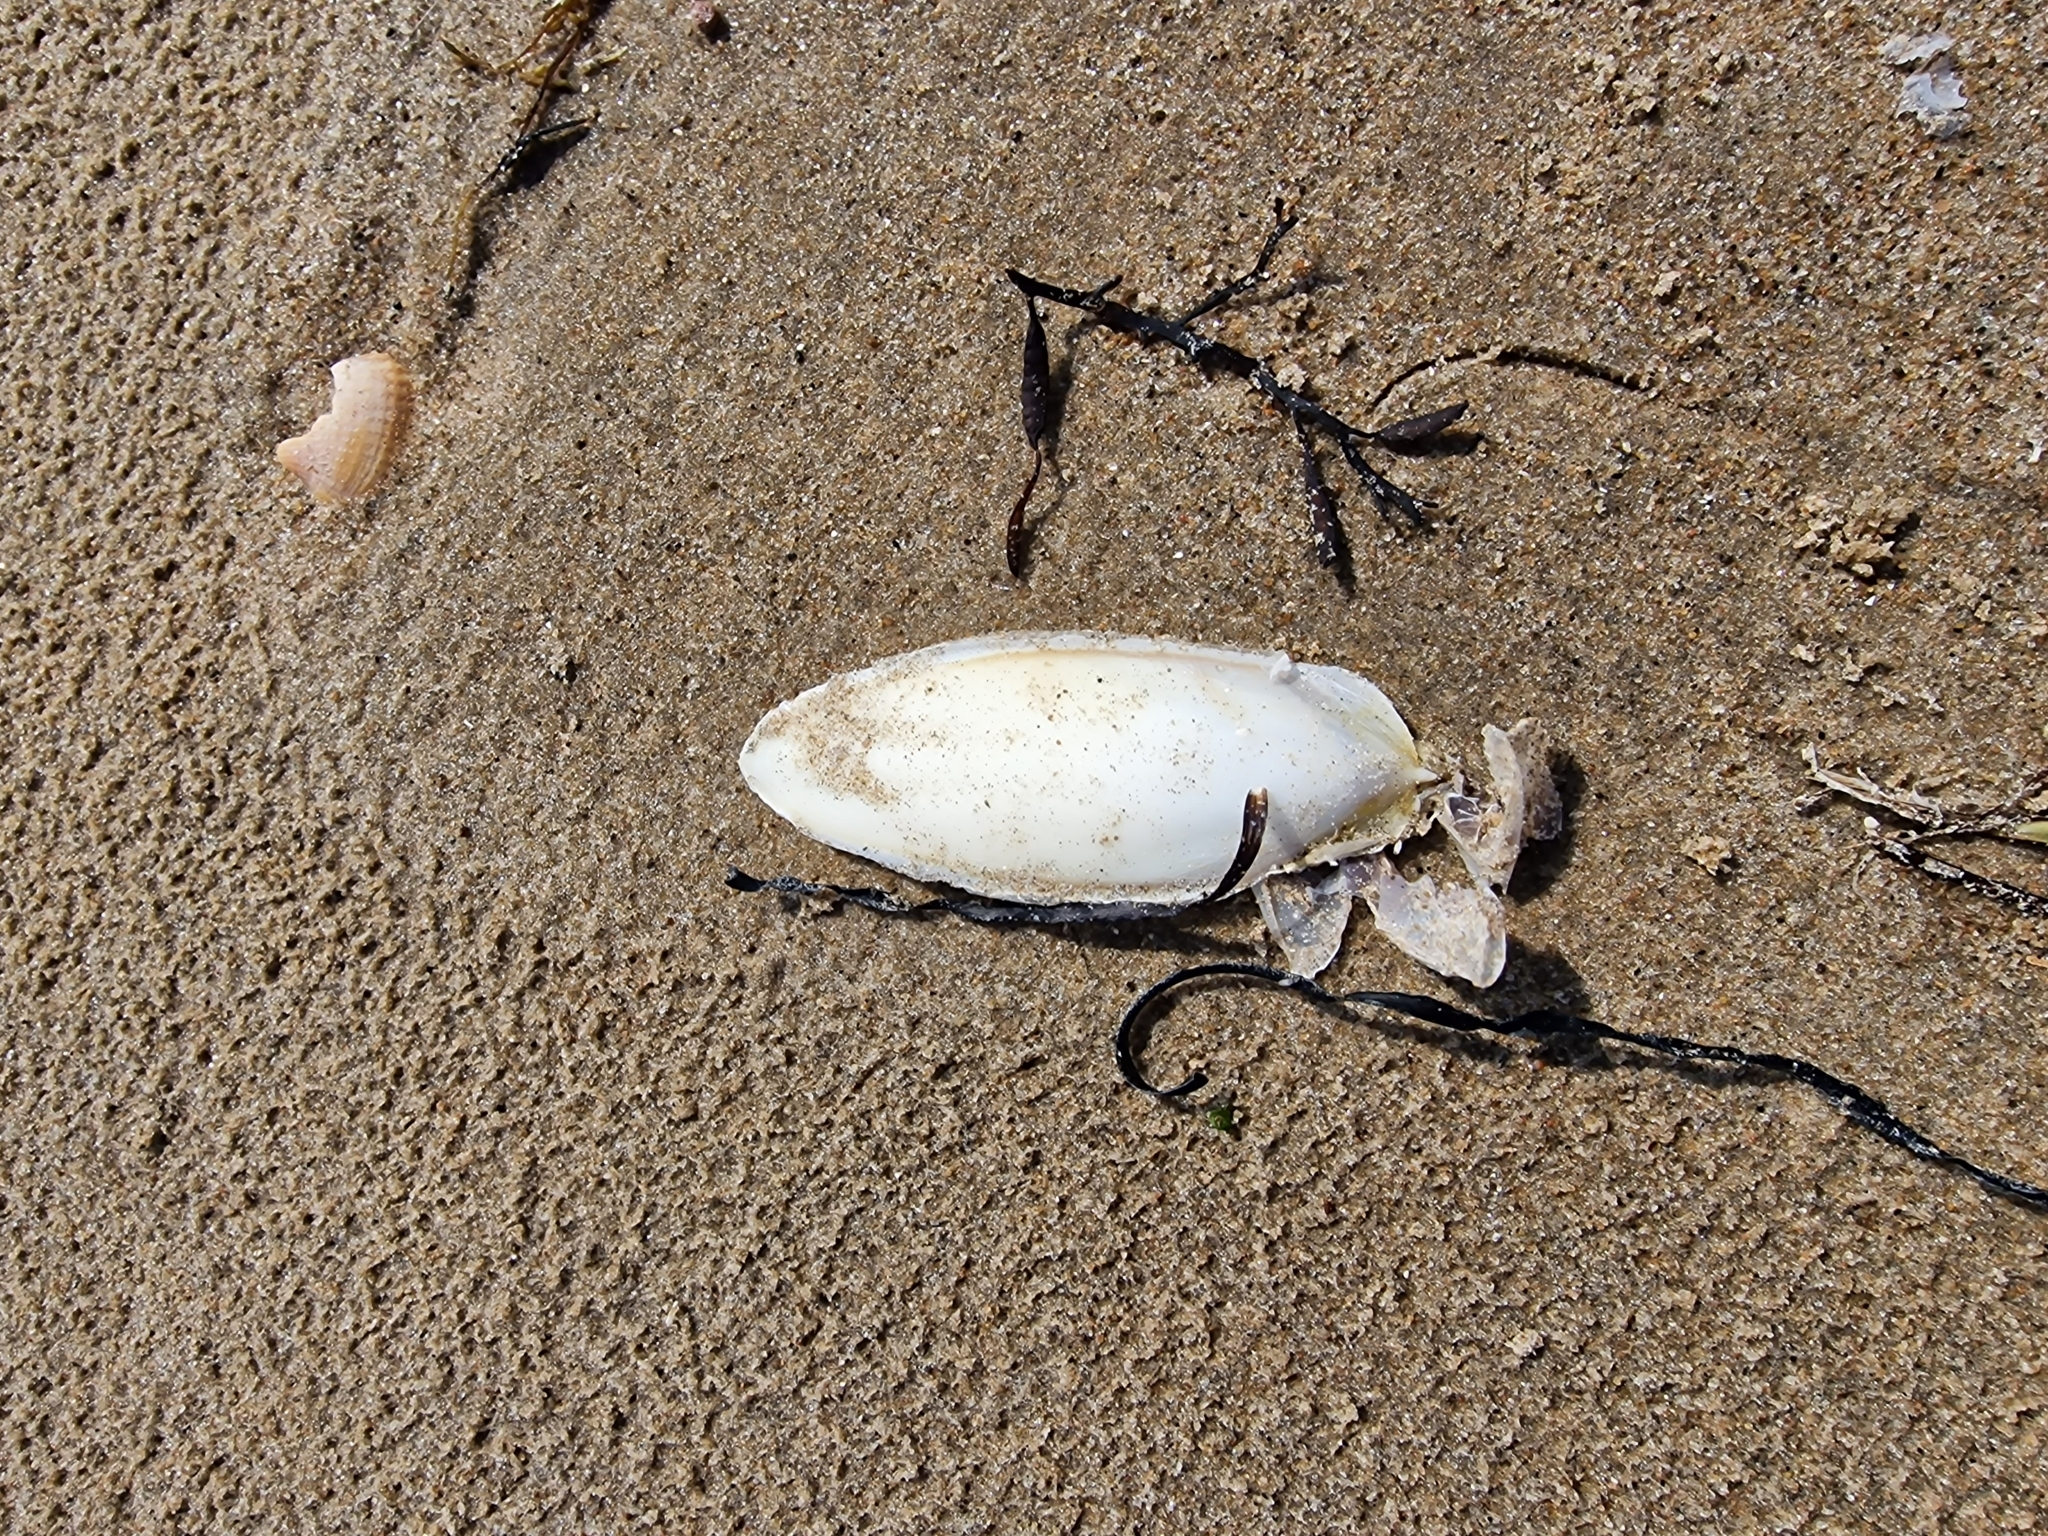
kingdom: Animalia
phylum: Mollusca
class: Cephalopoda
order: Sepiida
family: Sepiidae
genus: Sepia
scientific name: Sepia officinalis
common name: Common cuttlefish
